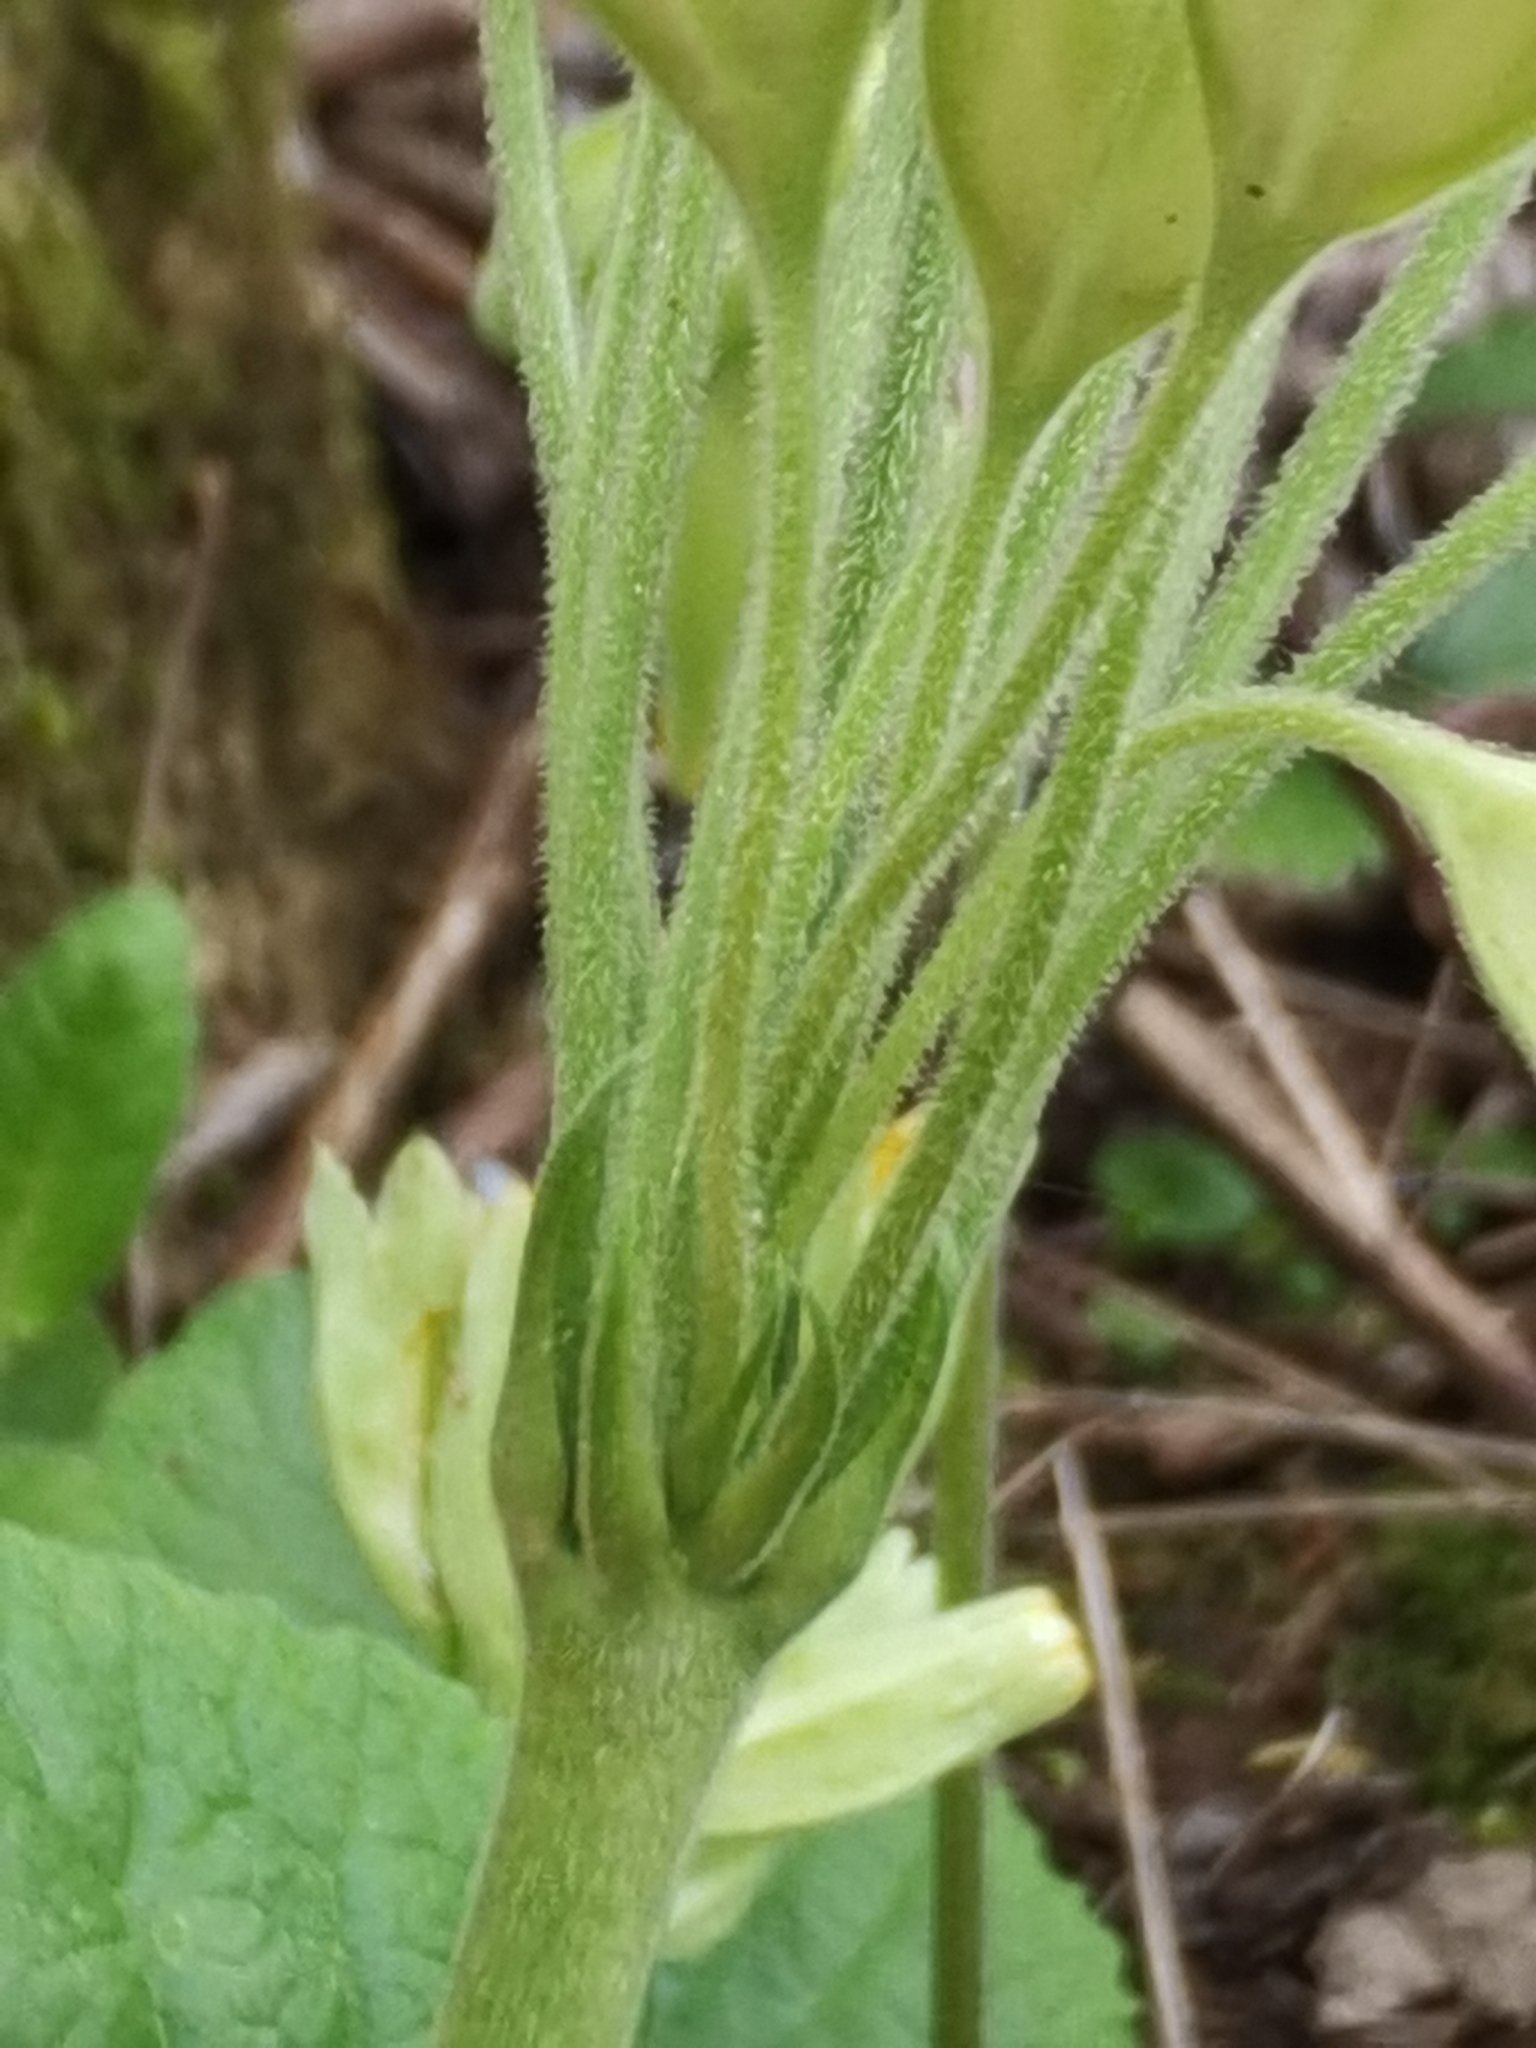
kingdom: Plantae
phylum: Tracheophyta
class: Magnoliopsida
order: Ericales
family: Primulaceae
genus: Primula
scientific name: Primula veris
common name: Cowslip
